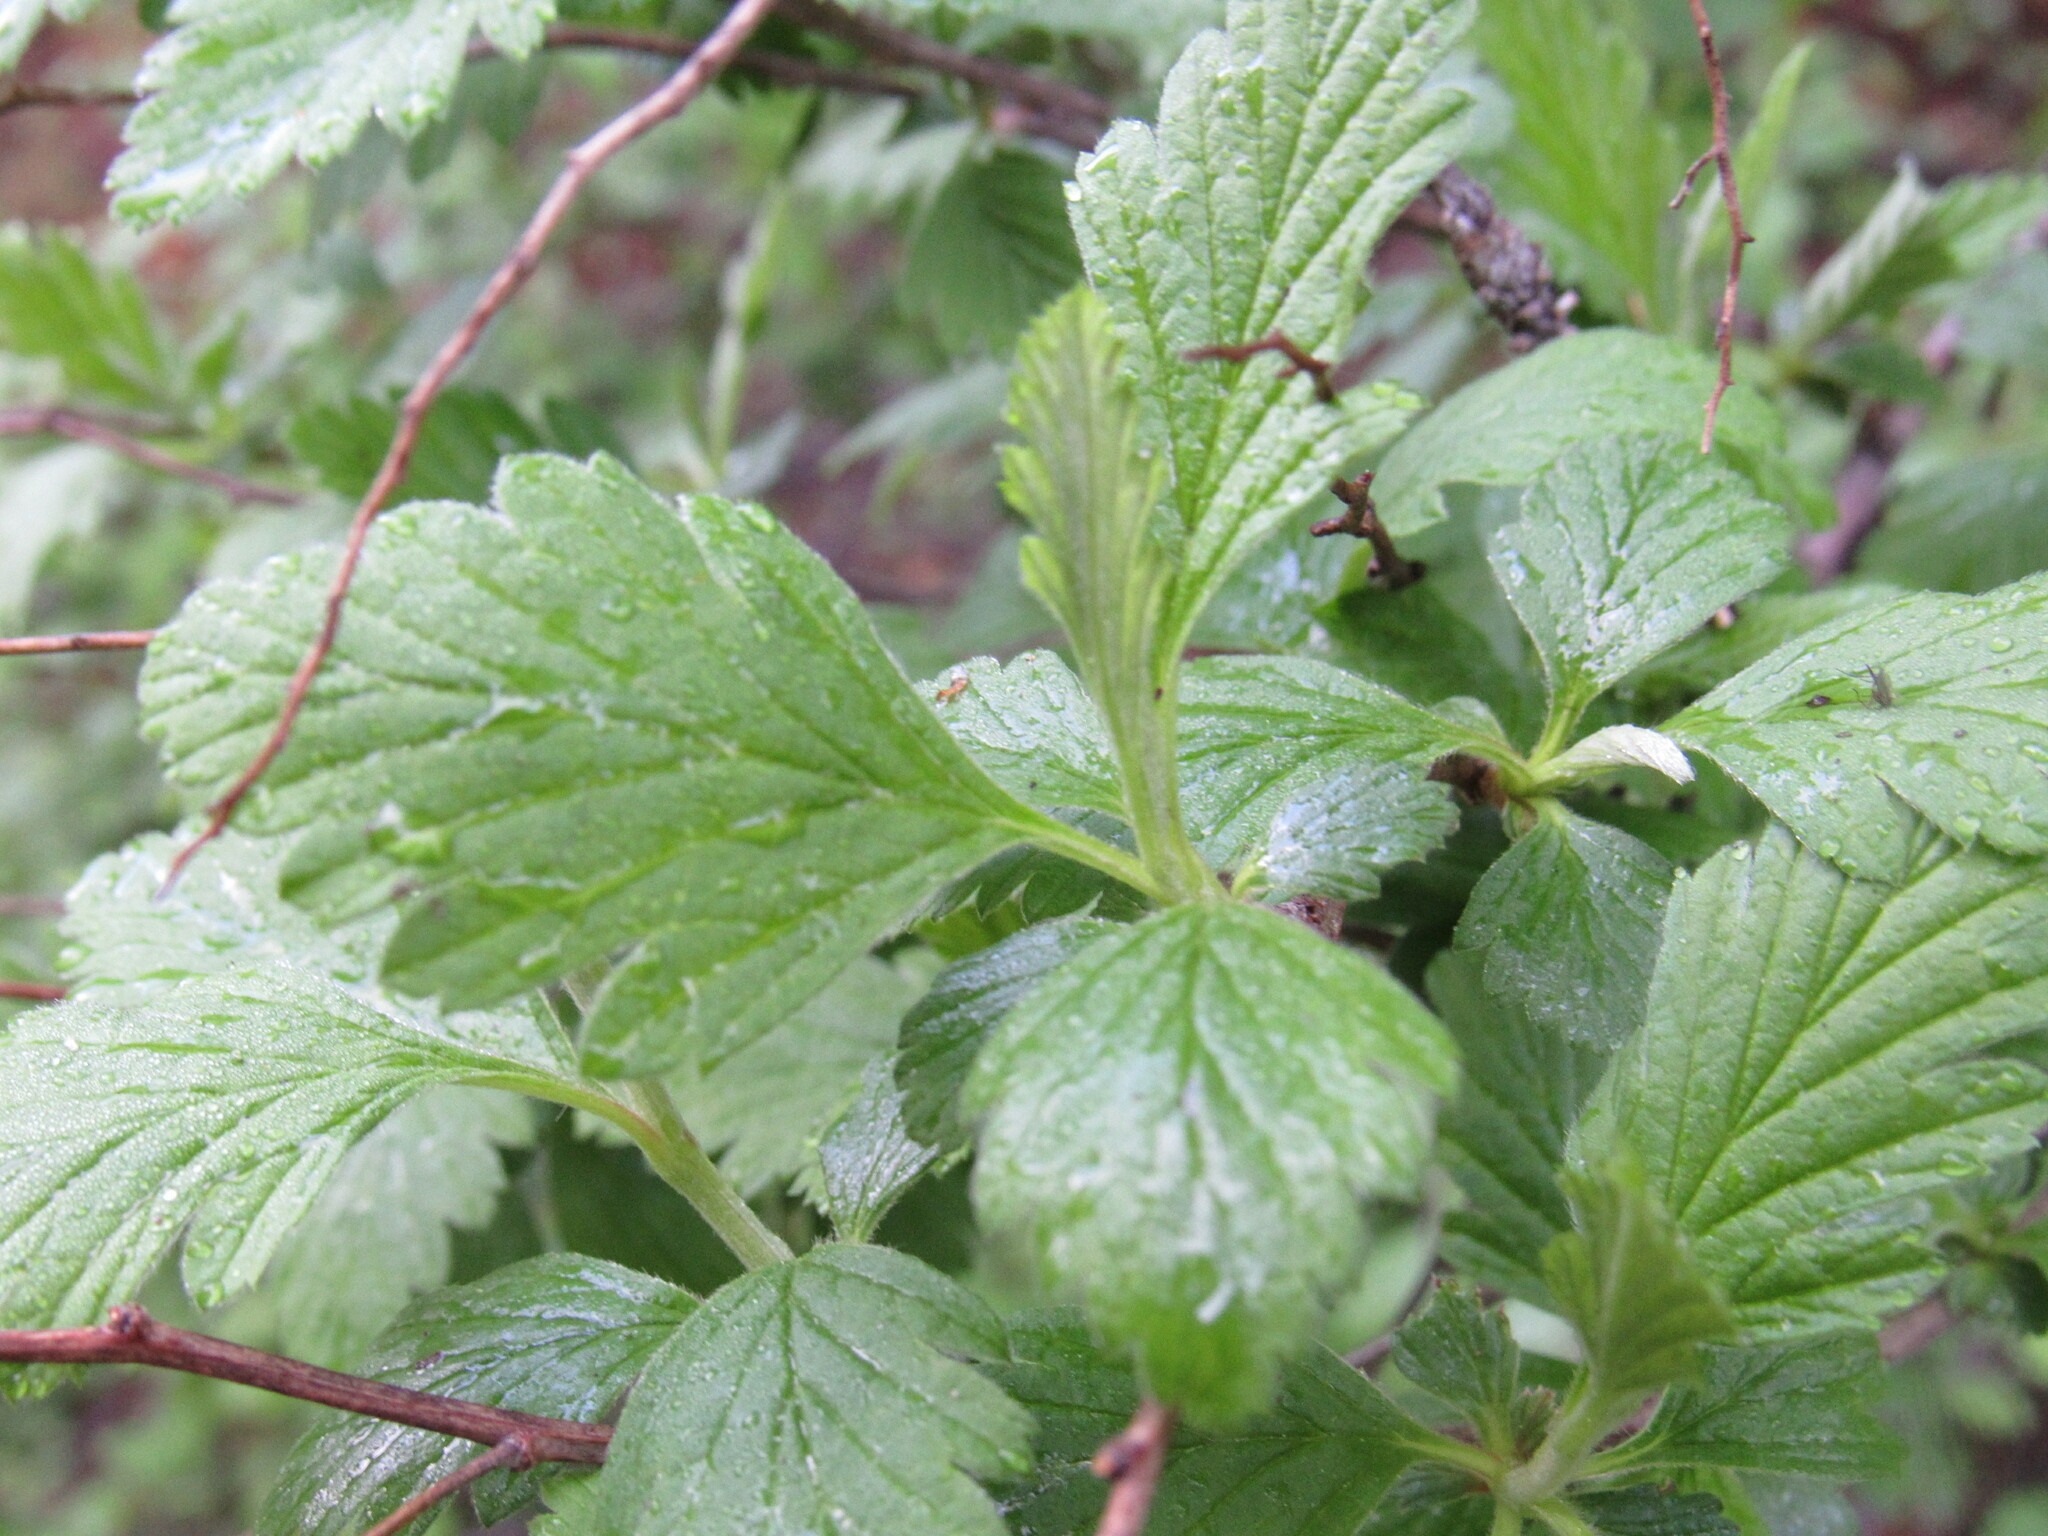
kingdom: Plantae
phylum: Tracheophyta
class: Magnoliopsida
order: Rosales
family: Rosaceae
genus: Holodiscus
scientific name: Holodiscus discolor
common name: Oceanspray
